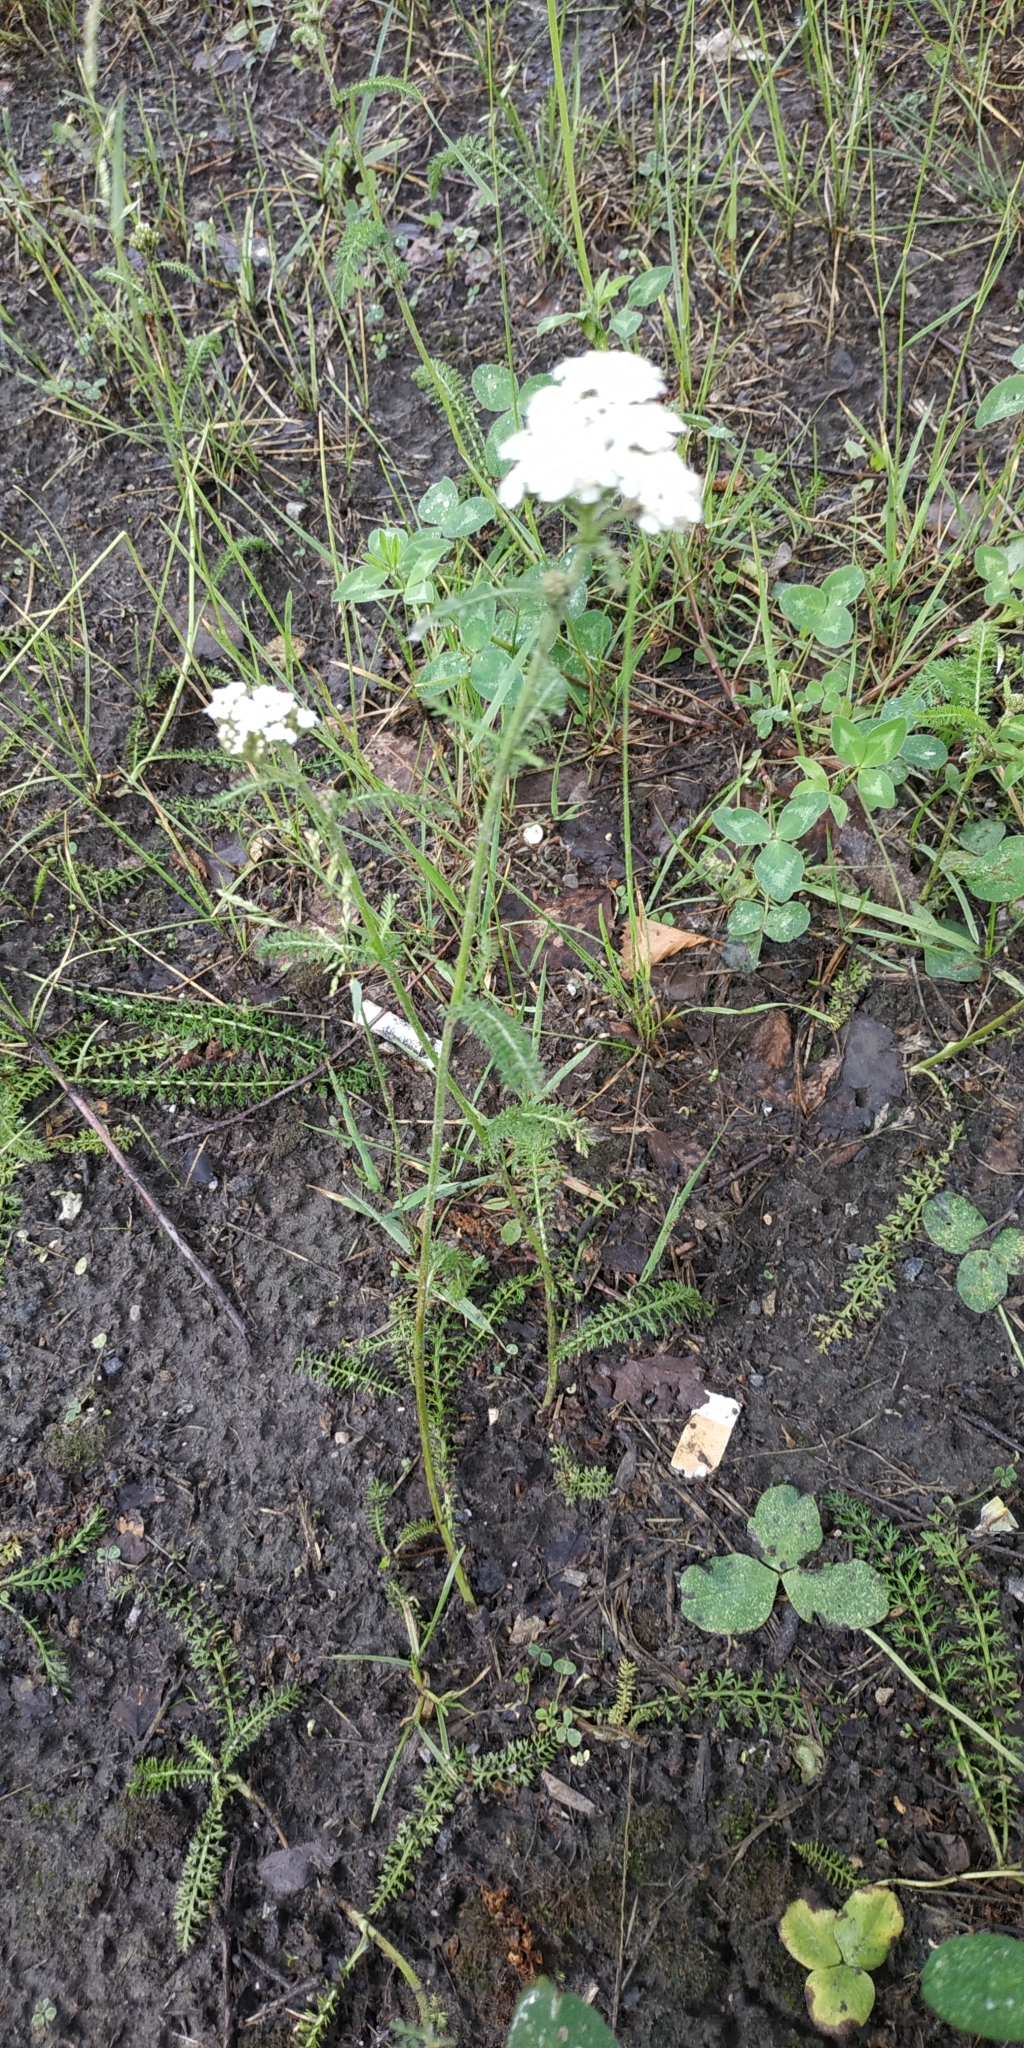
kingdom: Plantae
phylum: Tracheophyta
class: Magnoliopsida
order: Asterales
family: Asteraceae
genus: Achillea
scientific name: Achillea millefolium
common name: Yarrow
